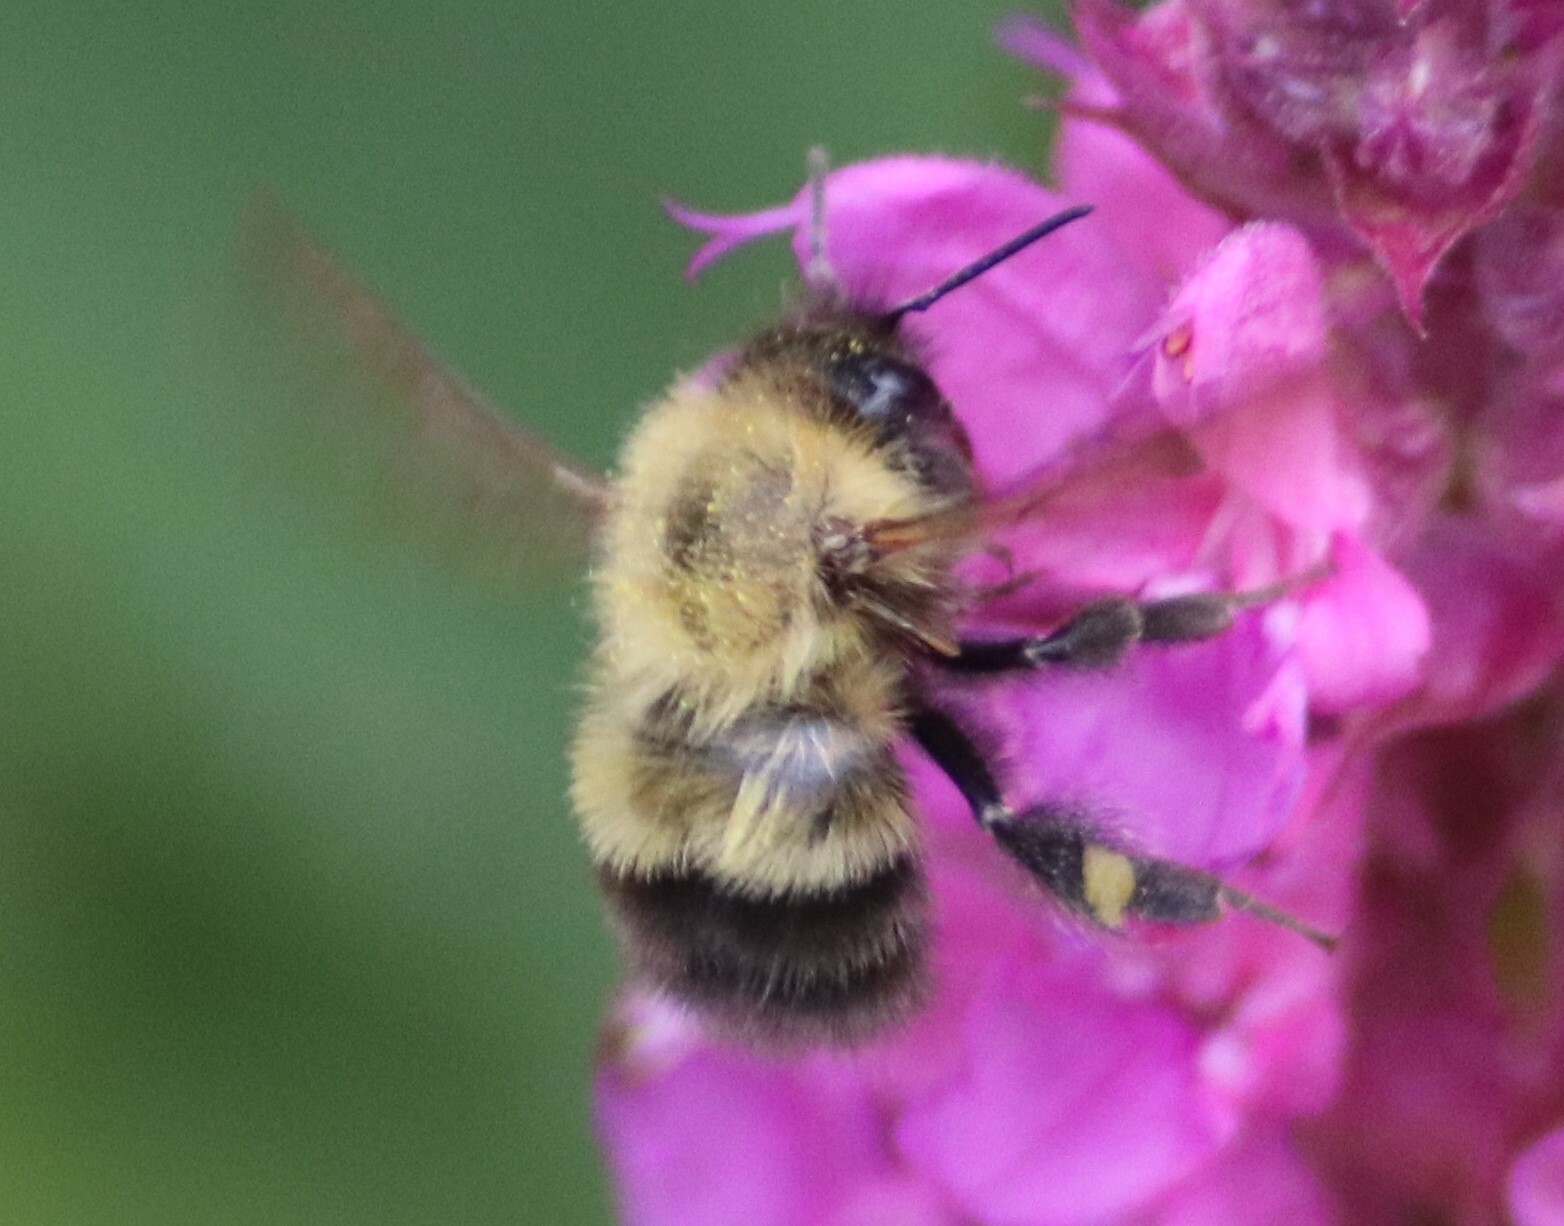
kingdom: Animalia
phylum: Arthropoda
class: Insecta
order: Hymenoptera
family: Apidae
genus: Bombus
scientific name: Bombus perplexus
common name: Confusing bumble bee
